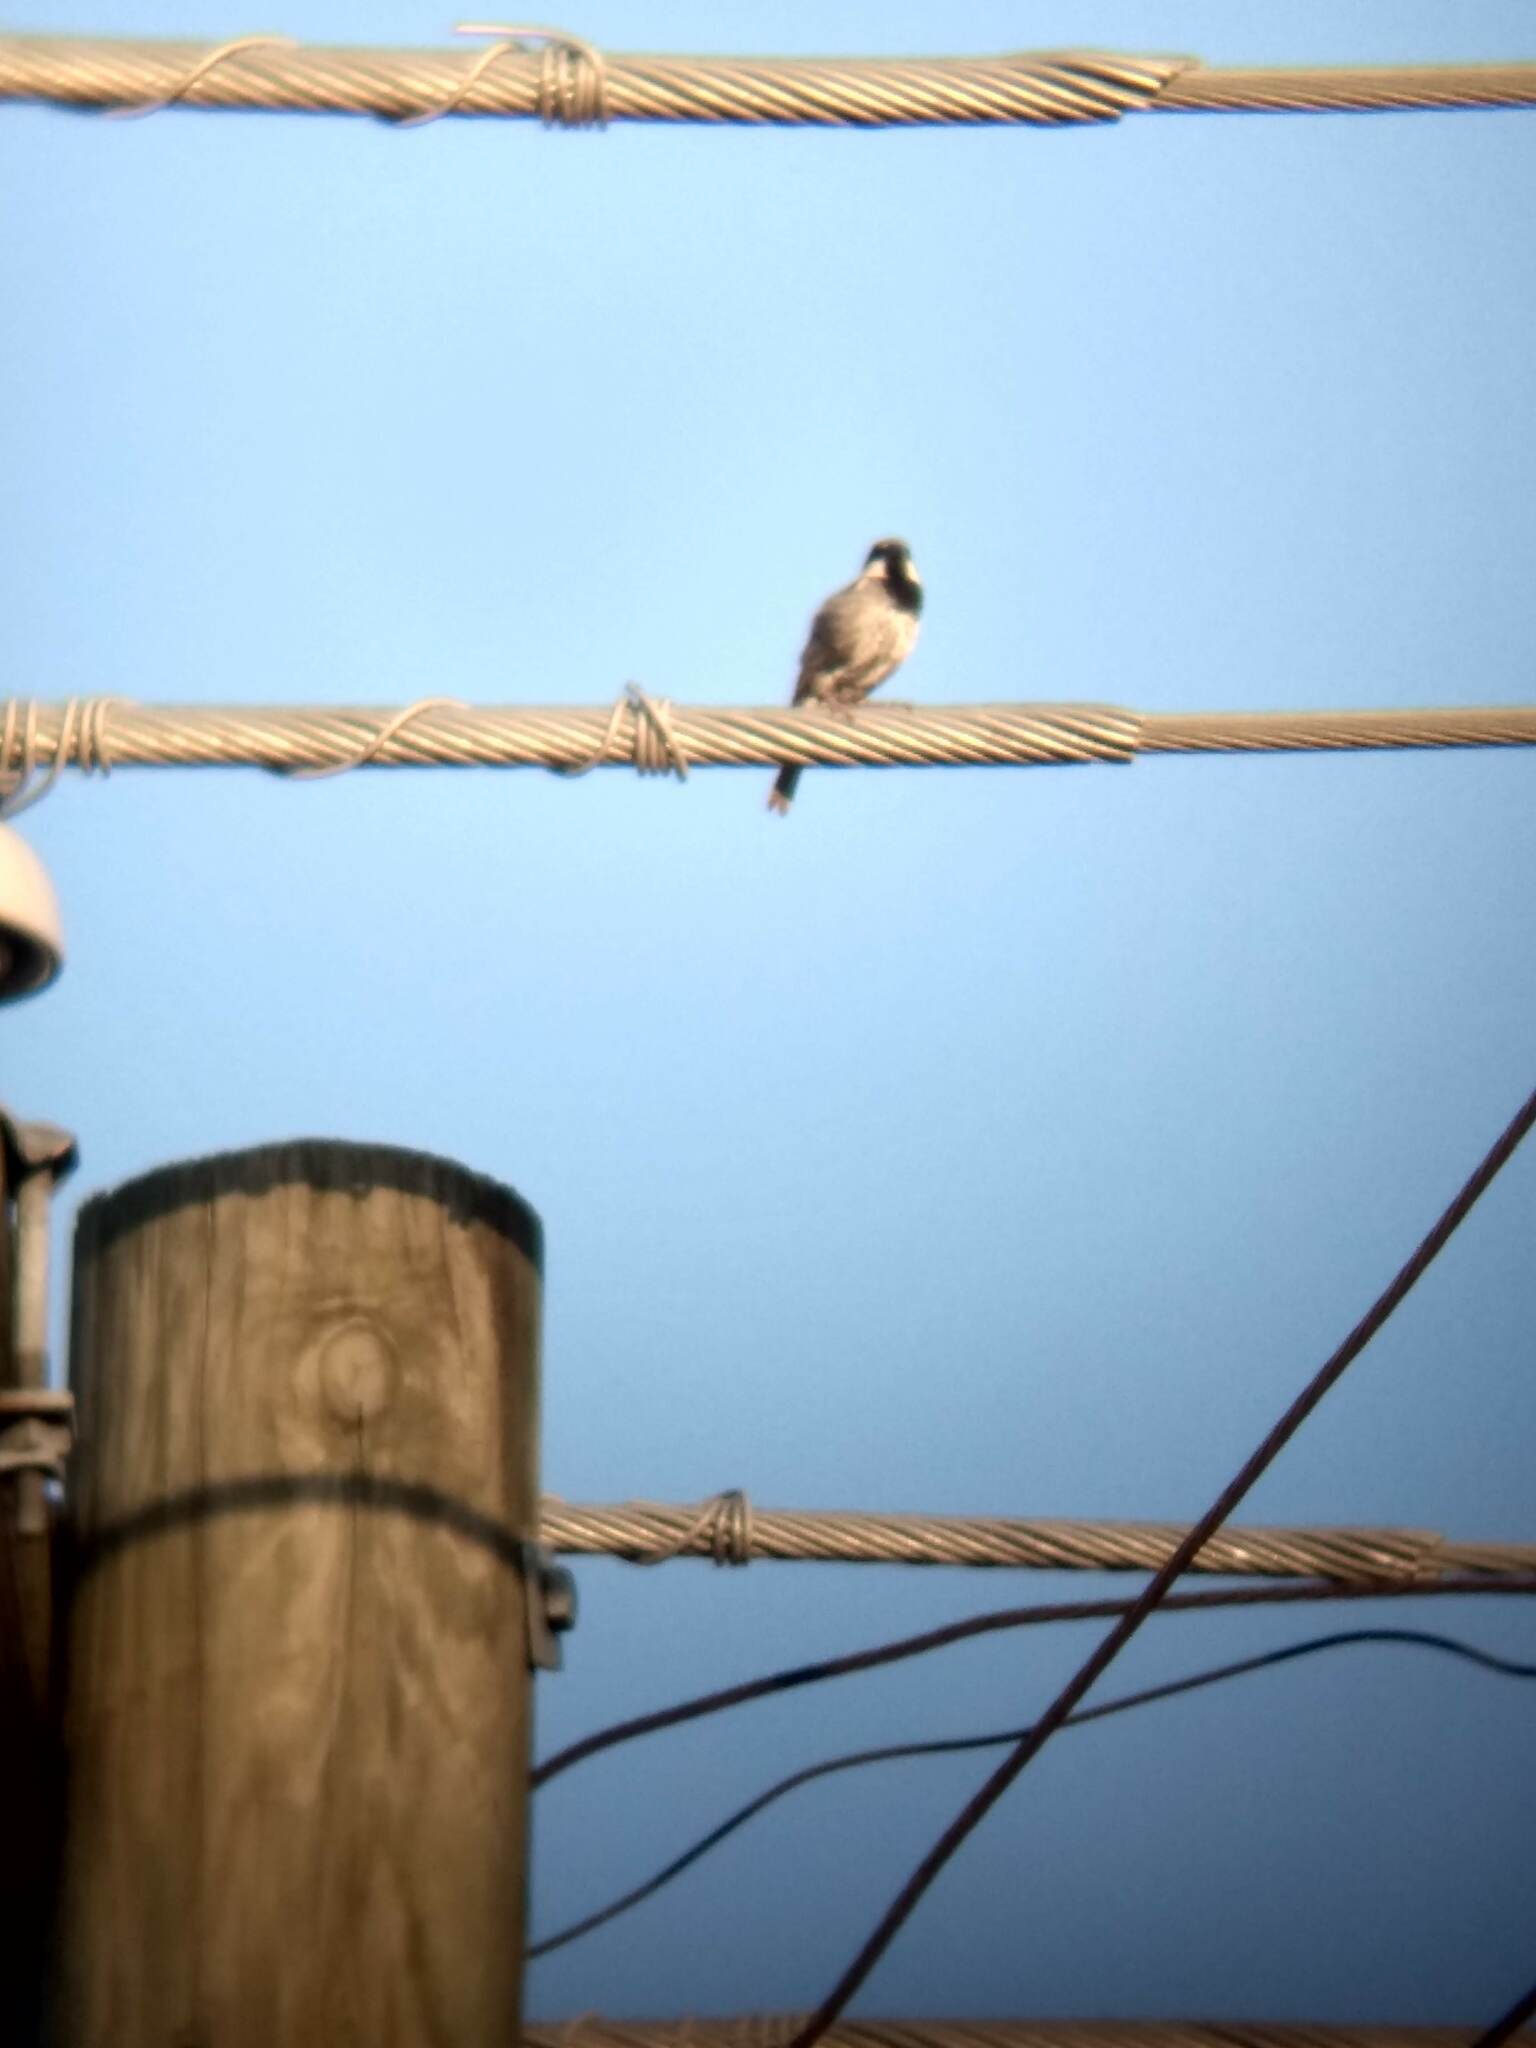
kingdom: Animalia
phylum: Chordata
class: Aves
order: Passeriformes
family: Passeridae
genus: Passer
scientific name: Passer domesticus
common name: House sparrow
